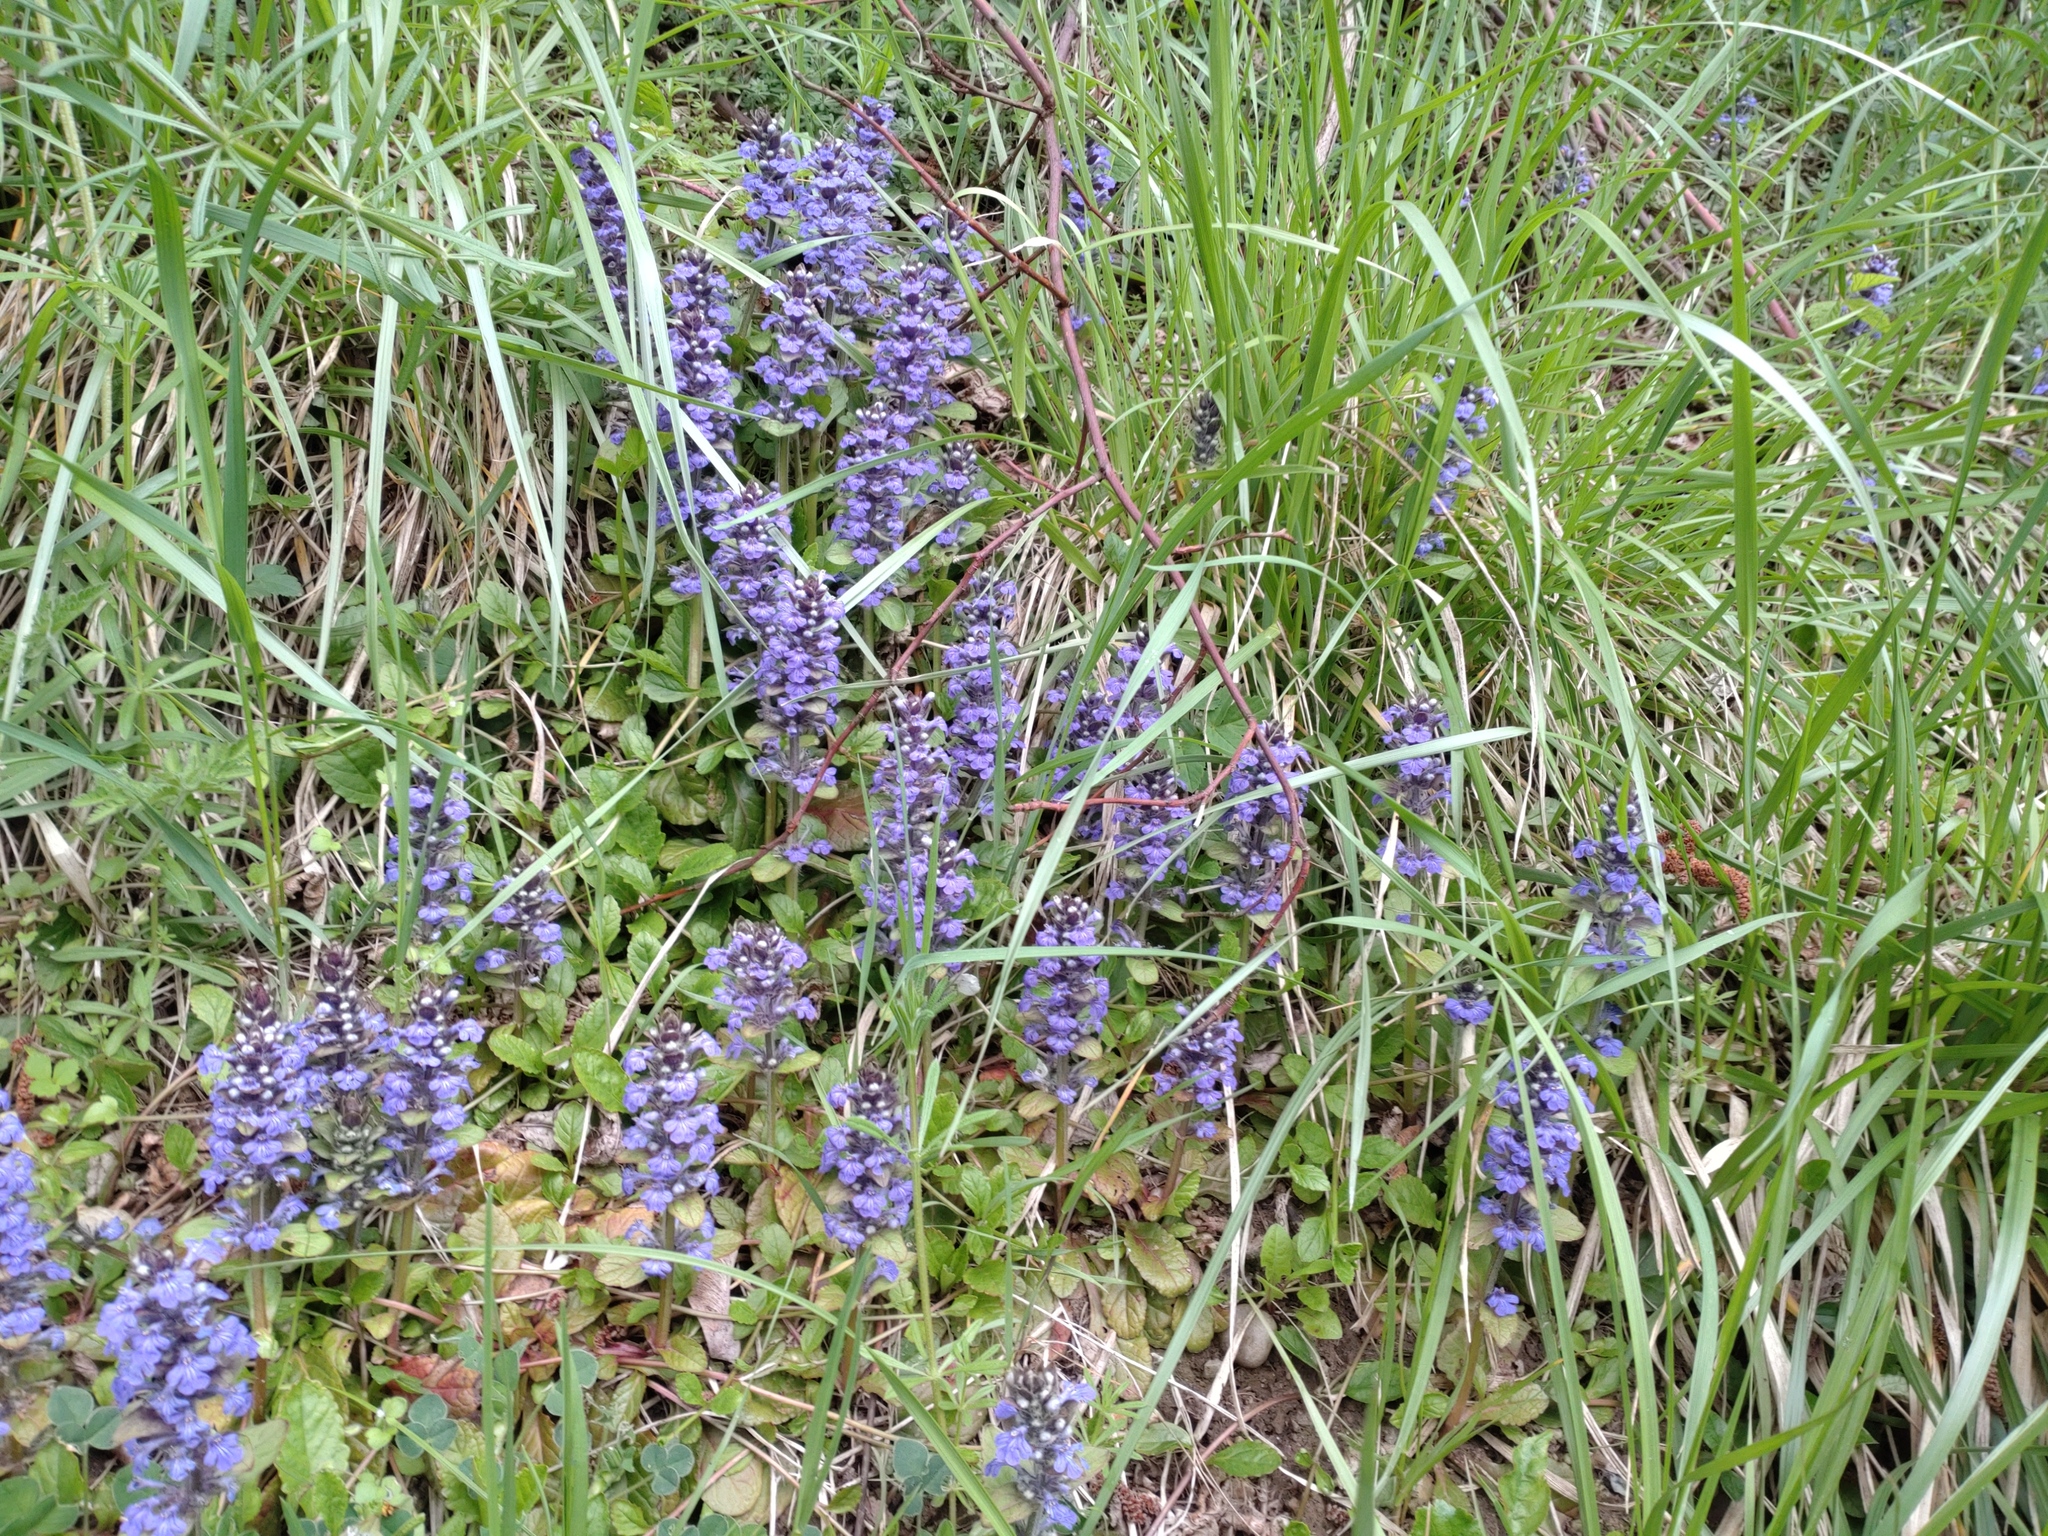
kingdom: Plantae
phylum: Tracheophyta
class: Magnoliopsida
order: Lamiales
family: Lamiaceae
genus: Ajuga
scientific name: Ajuga reptans
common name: Bugle
